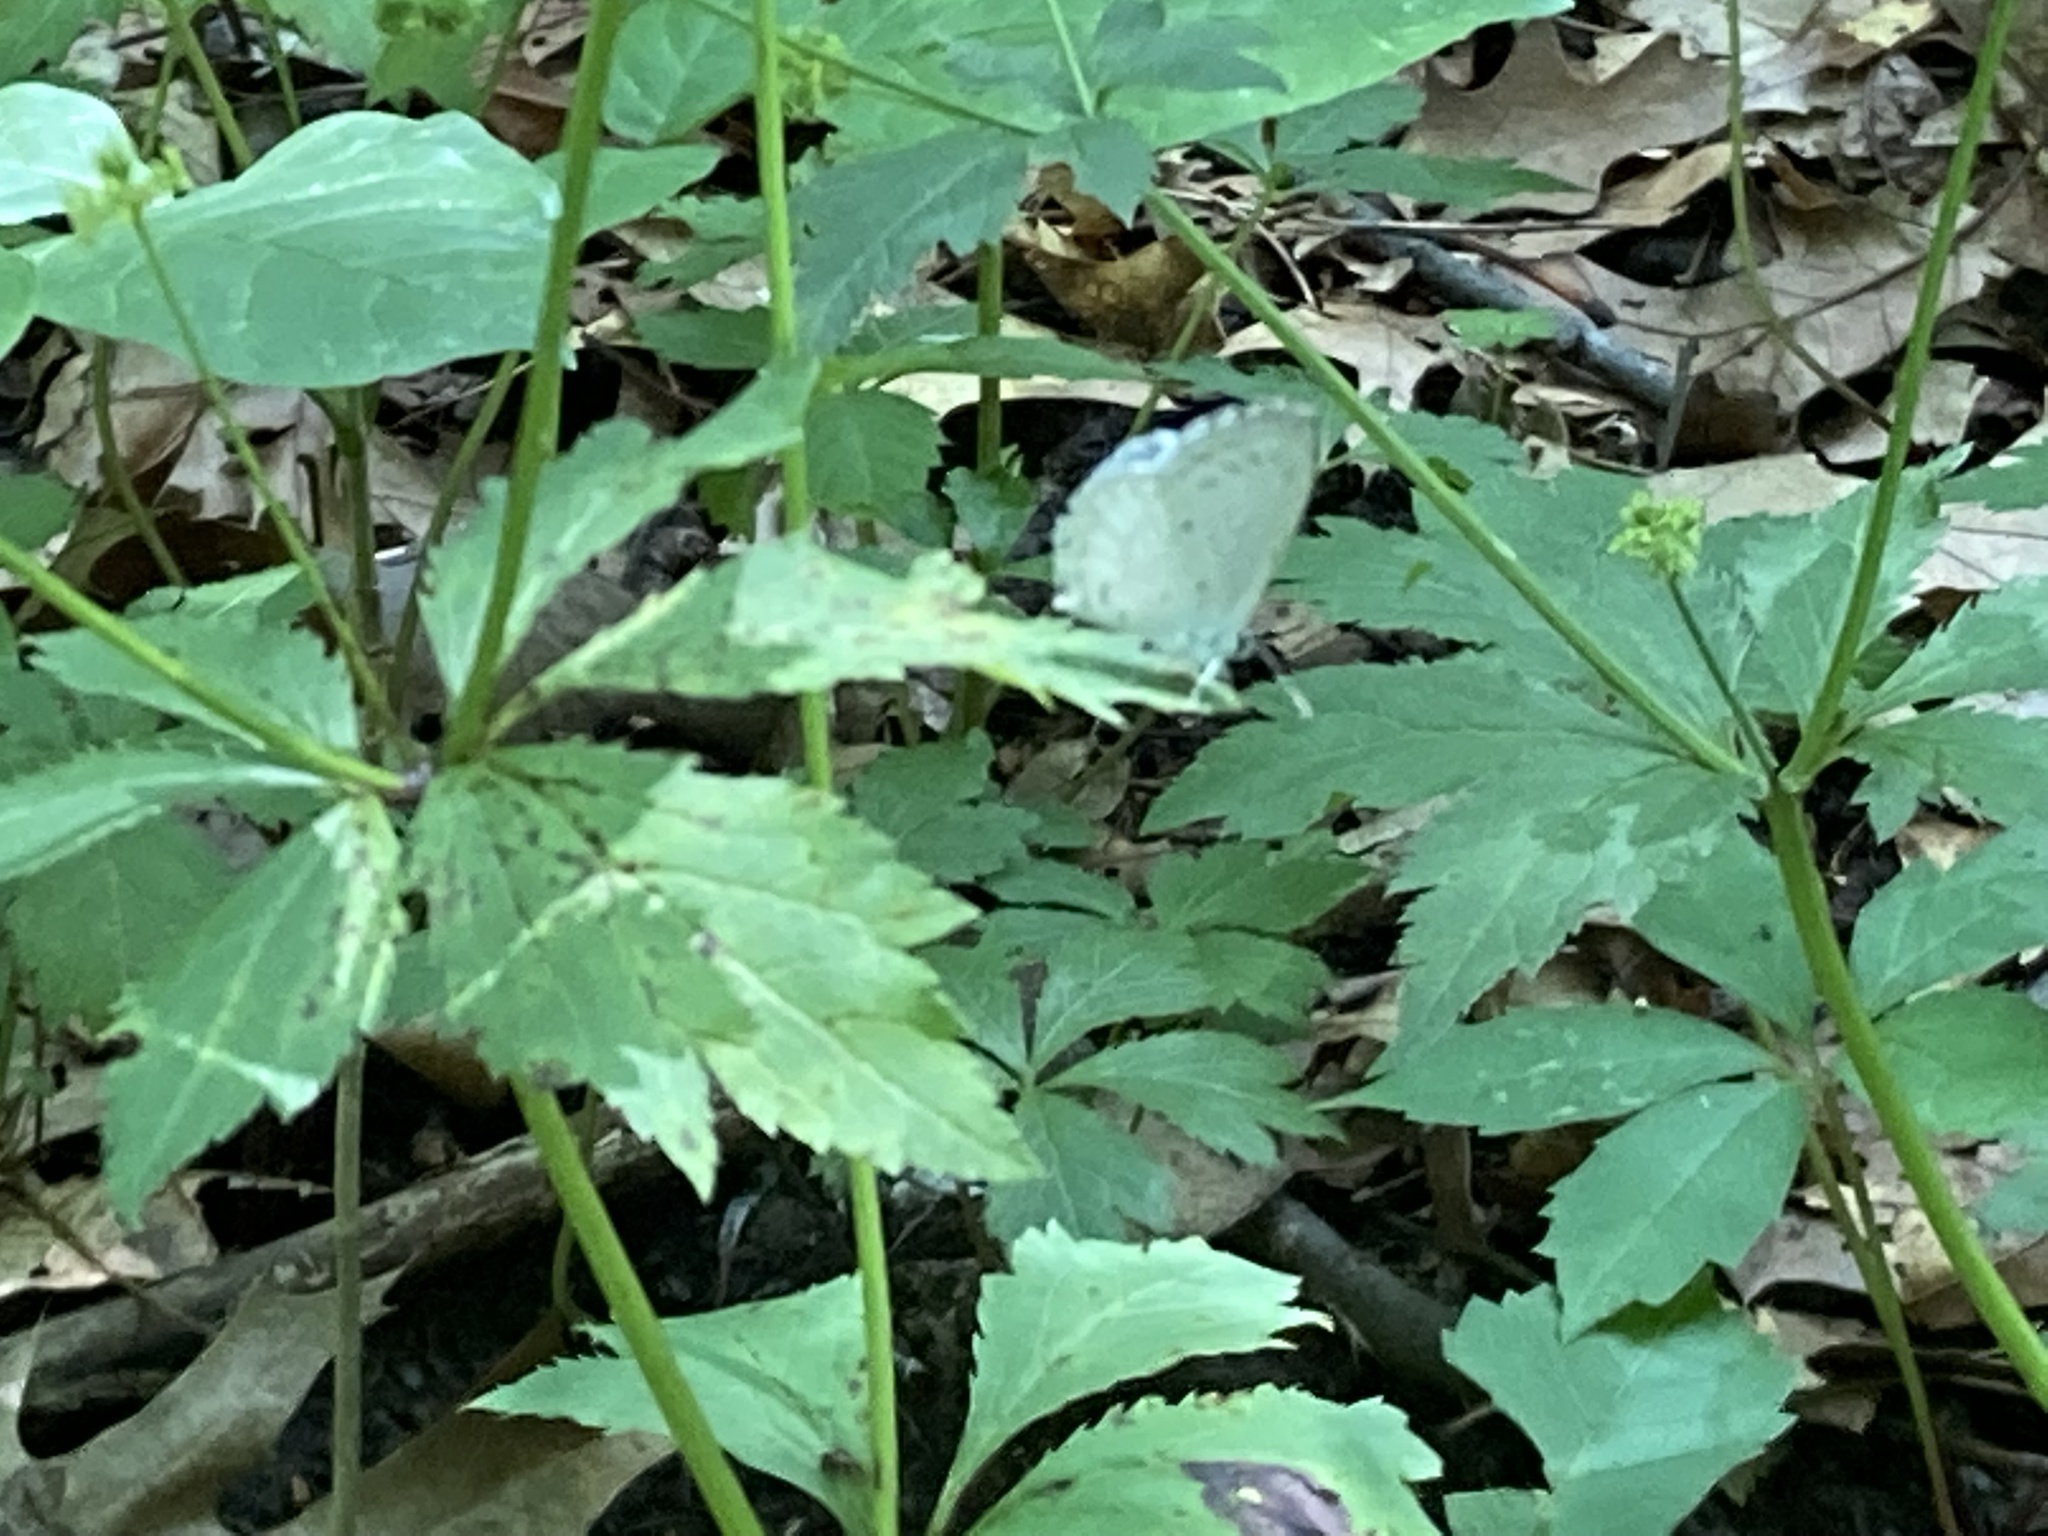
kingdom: Animalia
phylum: Arthropoda
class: Insecta
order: Lepidoptera
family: Lycaenidae
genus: Cyaniris
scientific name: Cyaniris neglecta
